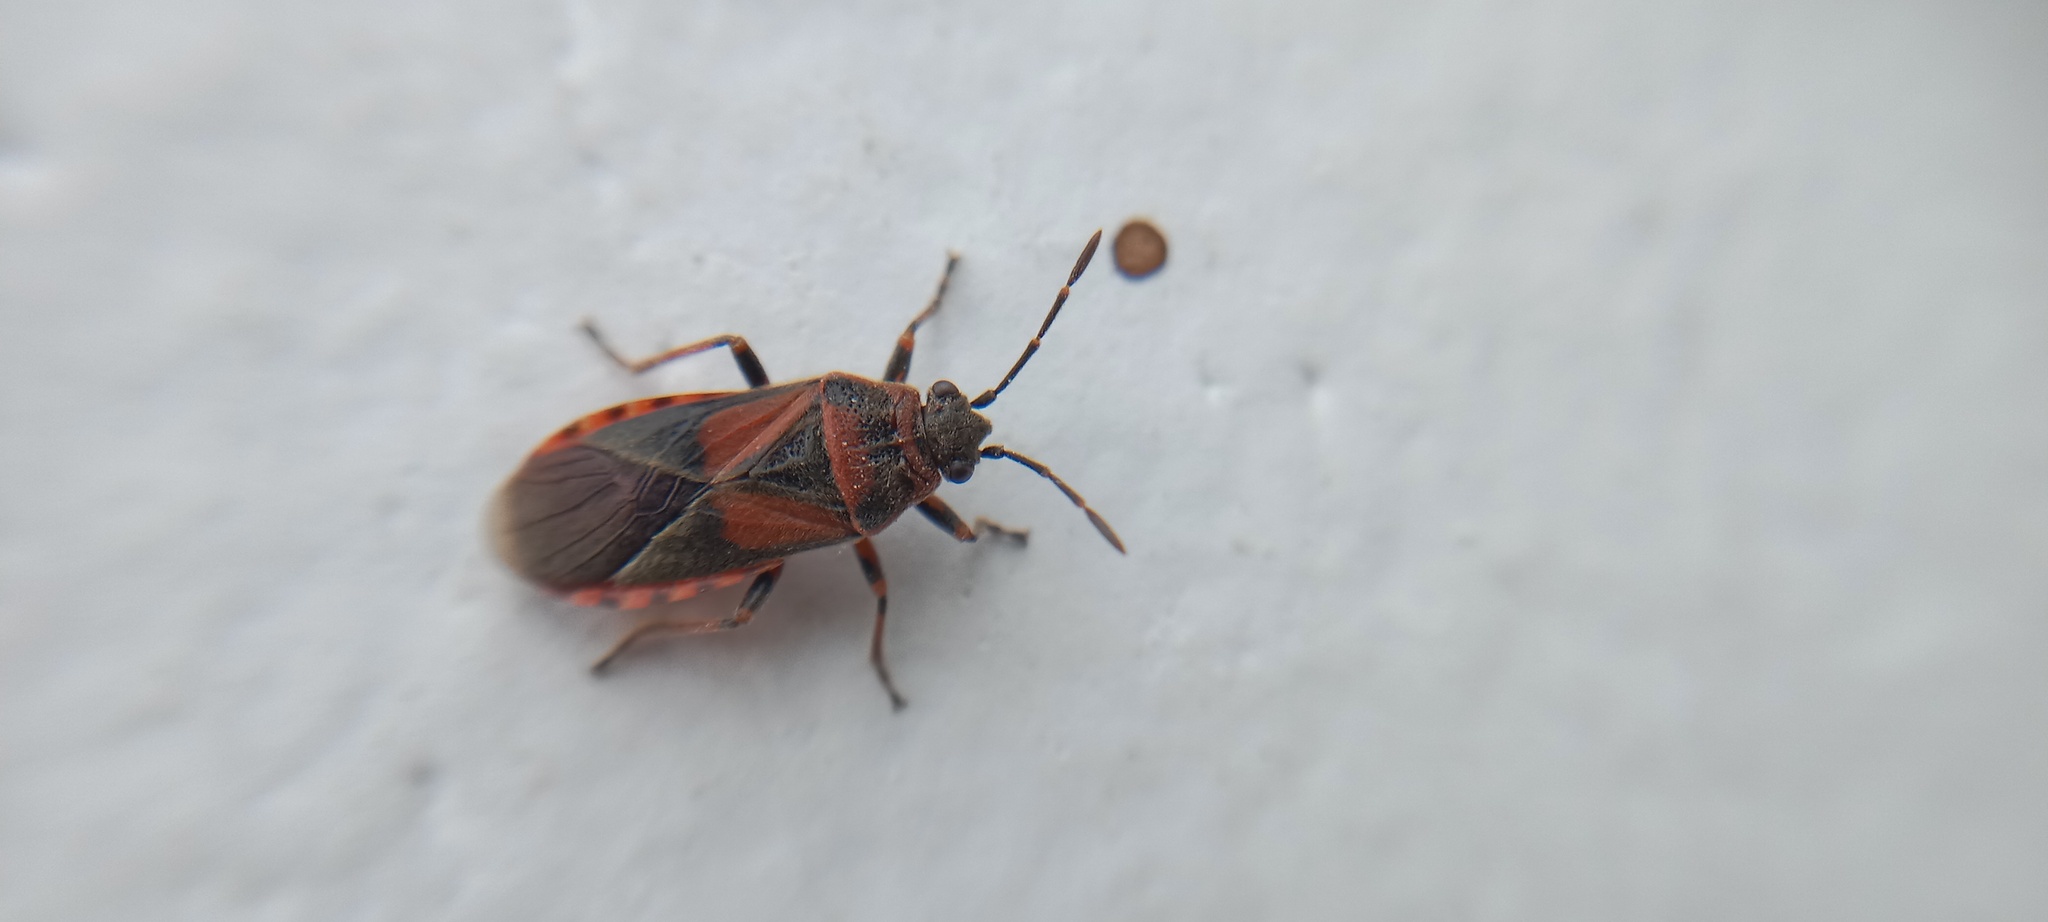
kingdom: Animalia
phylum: Arthropoda
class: Insecta
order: Hemiptera
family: Lygaeidae
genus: Arocatus
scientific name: Arocatus melanocephalus
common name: Lygaeid bug
